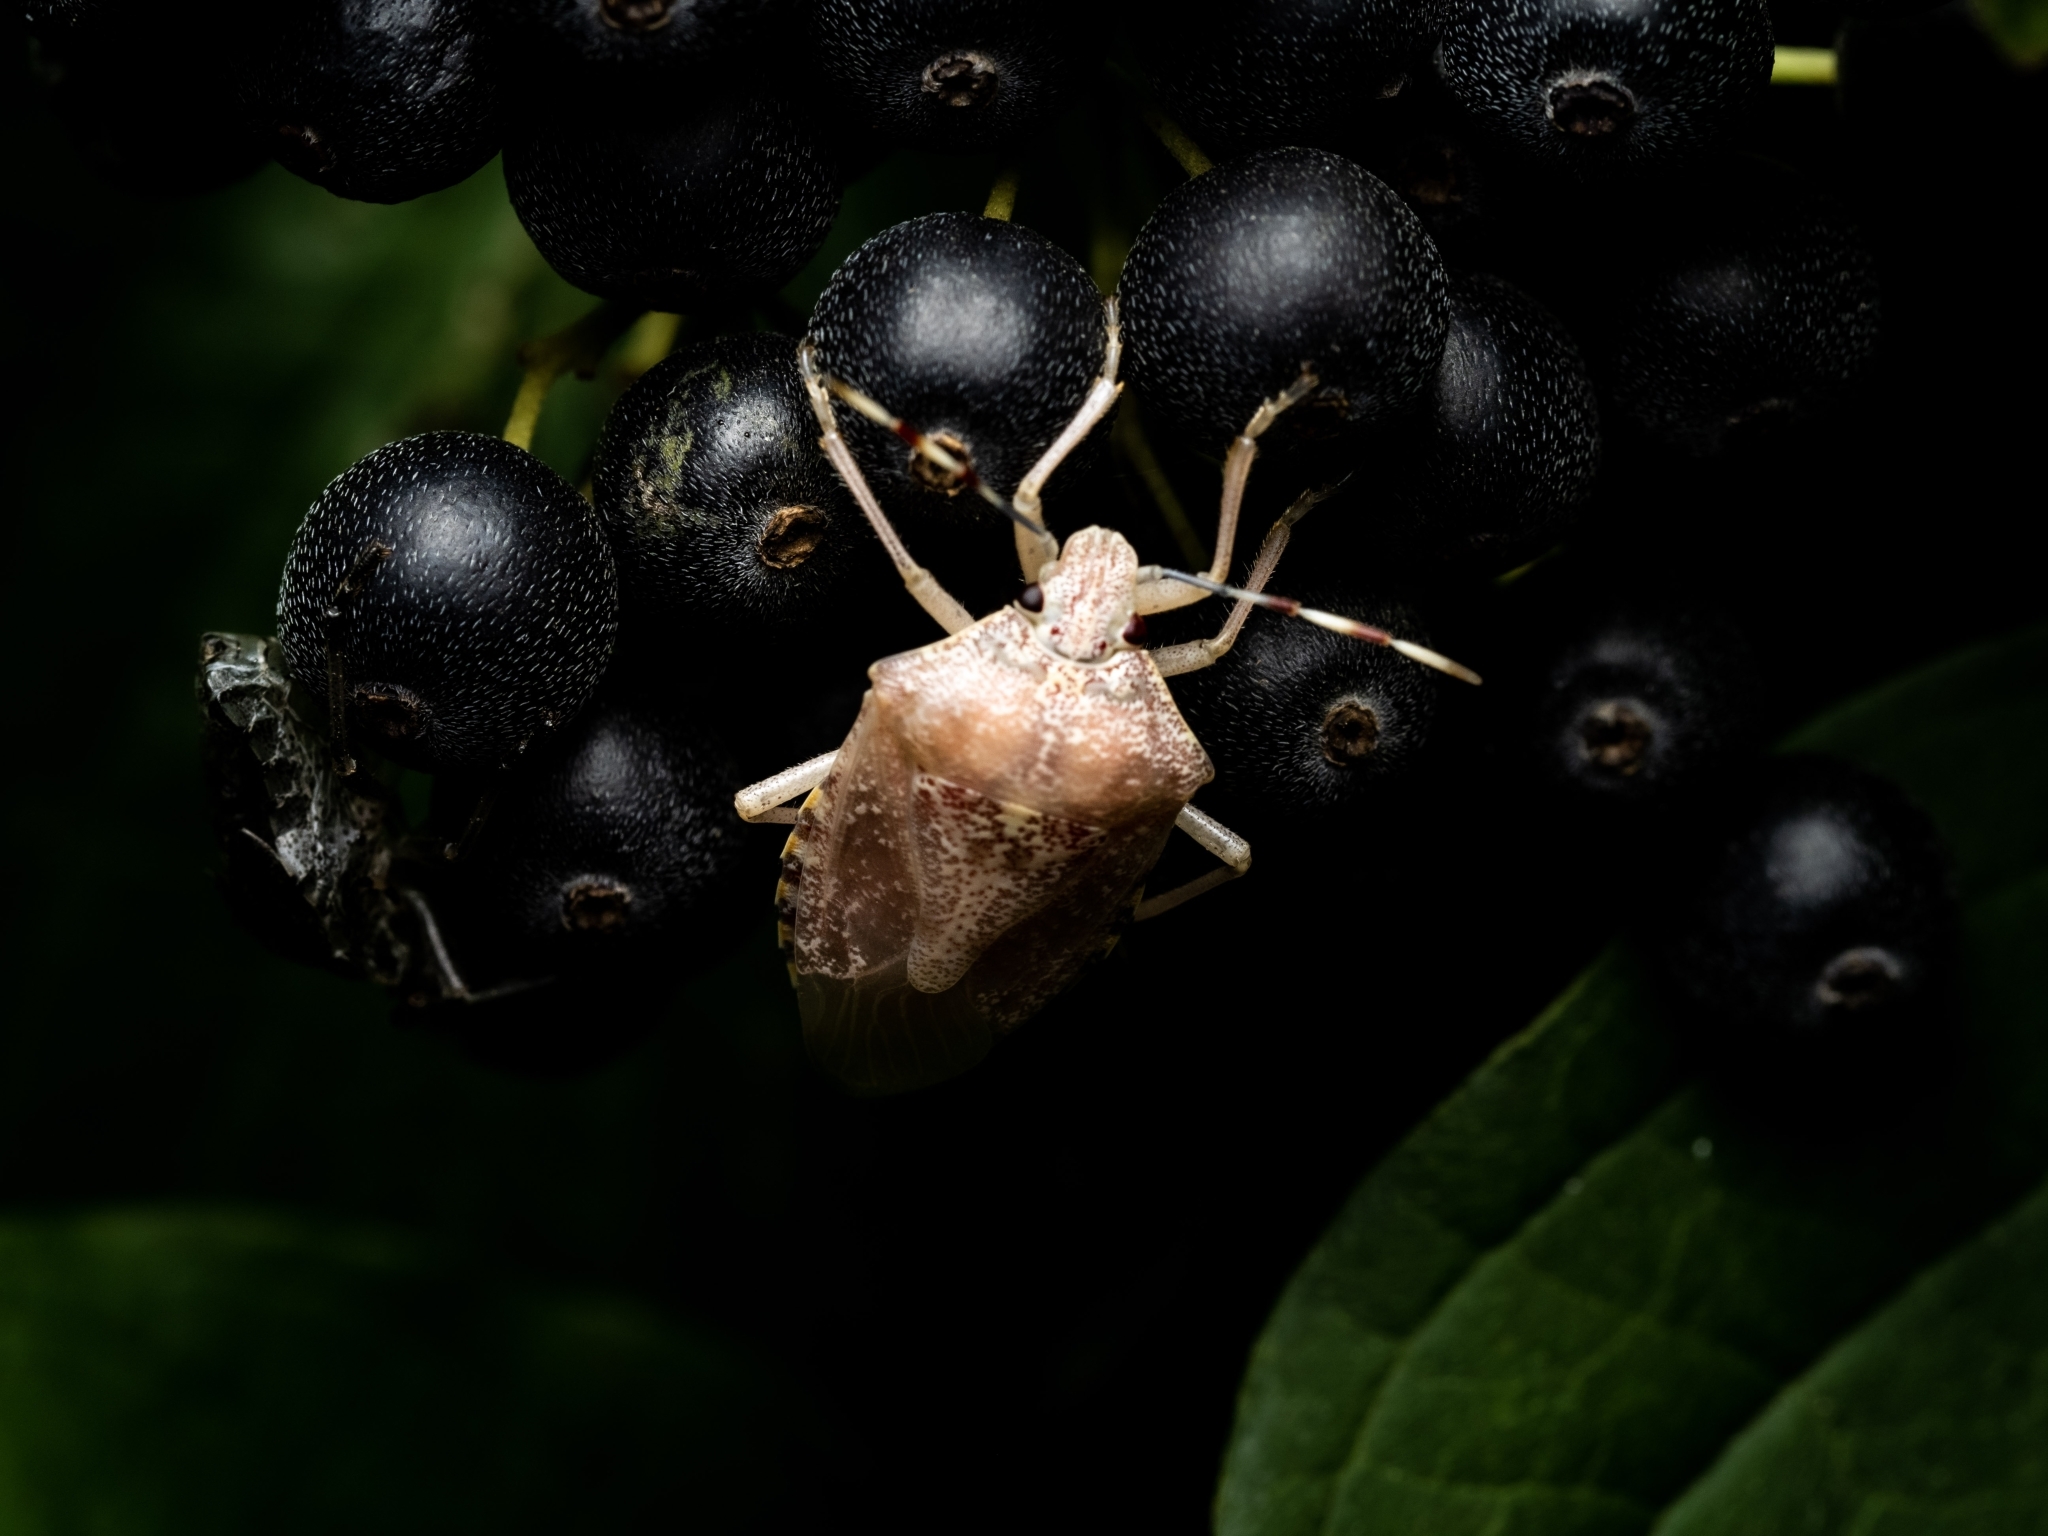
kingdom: Animalia
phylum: Arthropoda
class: Insecta
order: Hemiptera
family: Pentatomidae
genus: Rhaphigaster
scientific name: Rhaphigaster nebulosa
